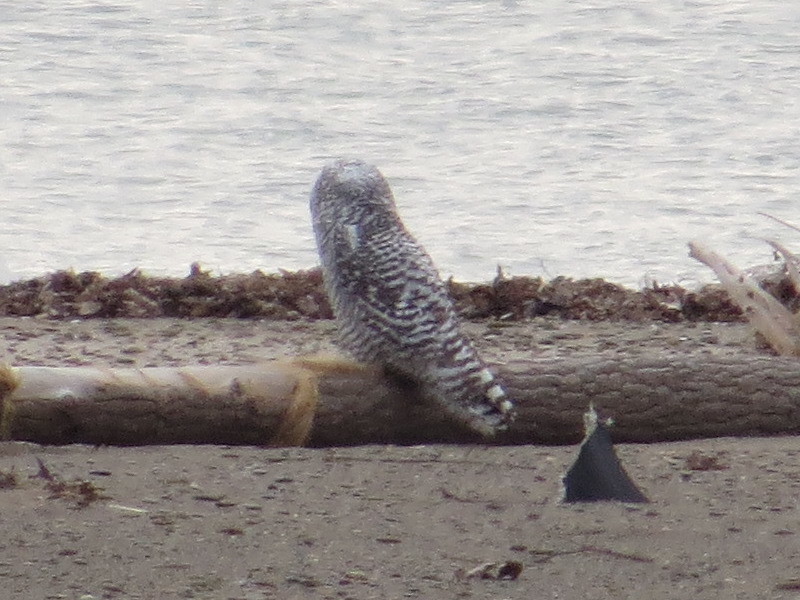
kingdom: Animalia
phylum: Chordata
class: Aves
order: Strigiformes
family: Strigidae
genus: Bubo
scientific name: Bubo scandiacus
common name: Snowy owl
